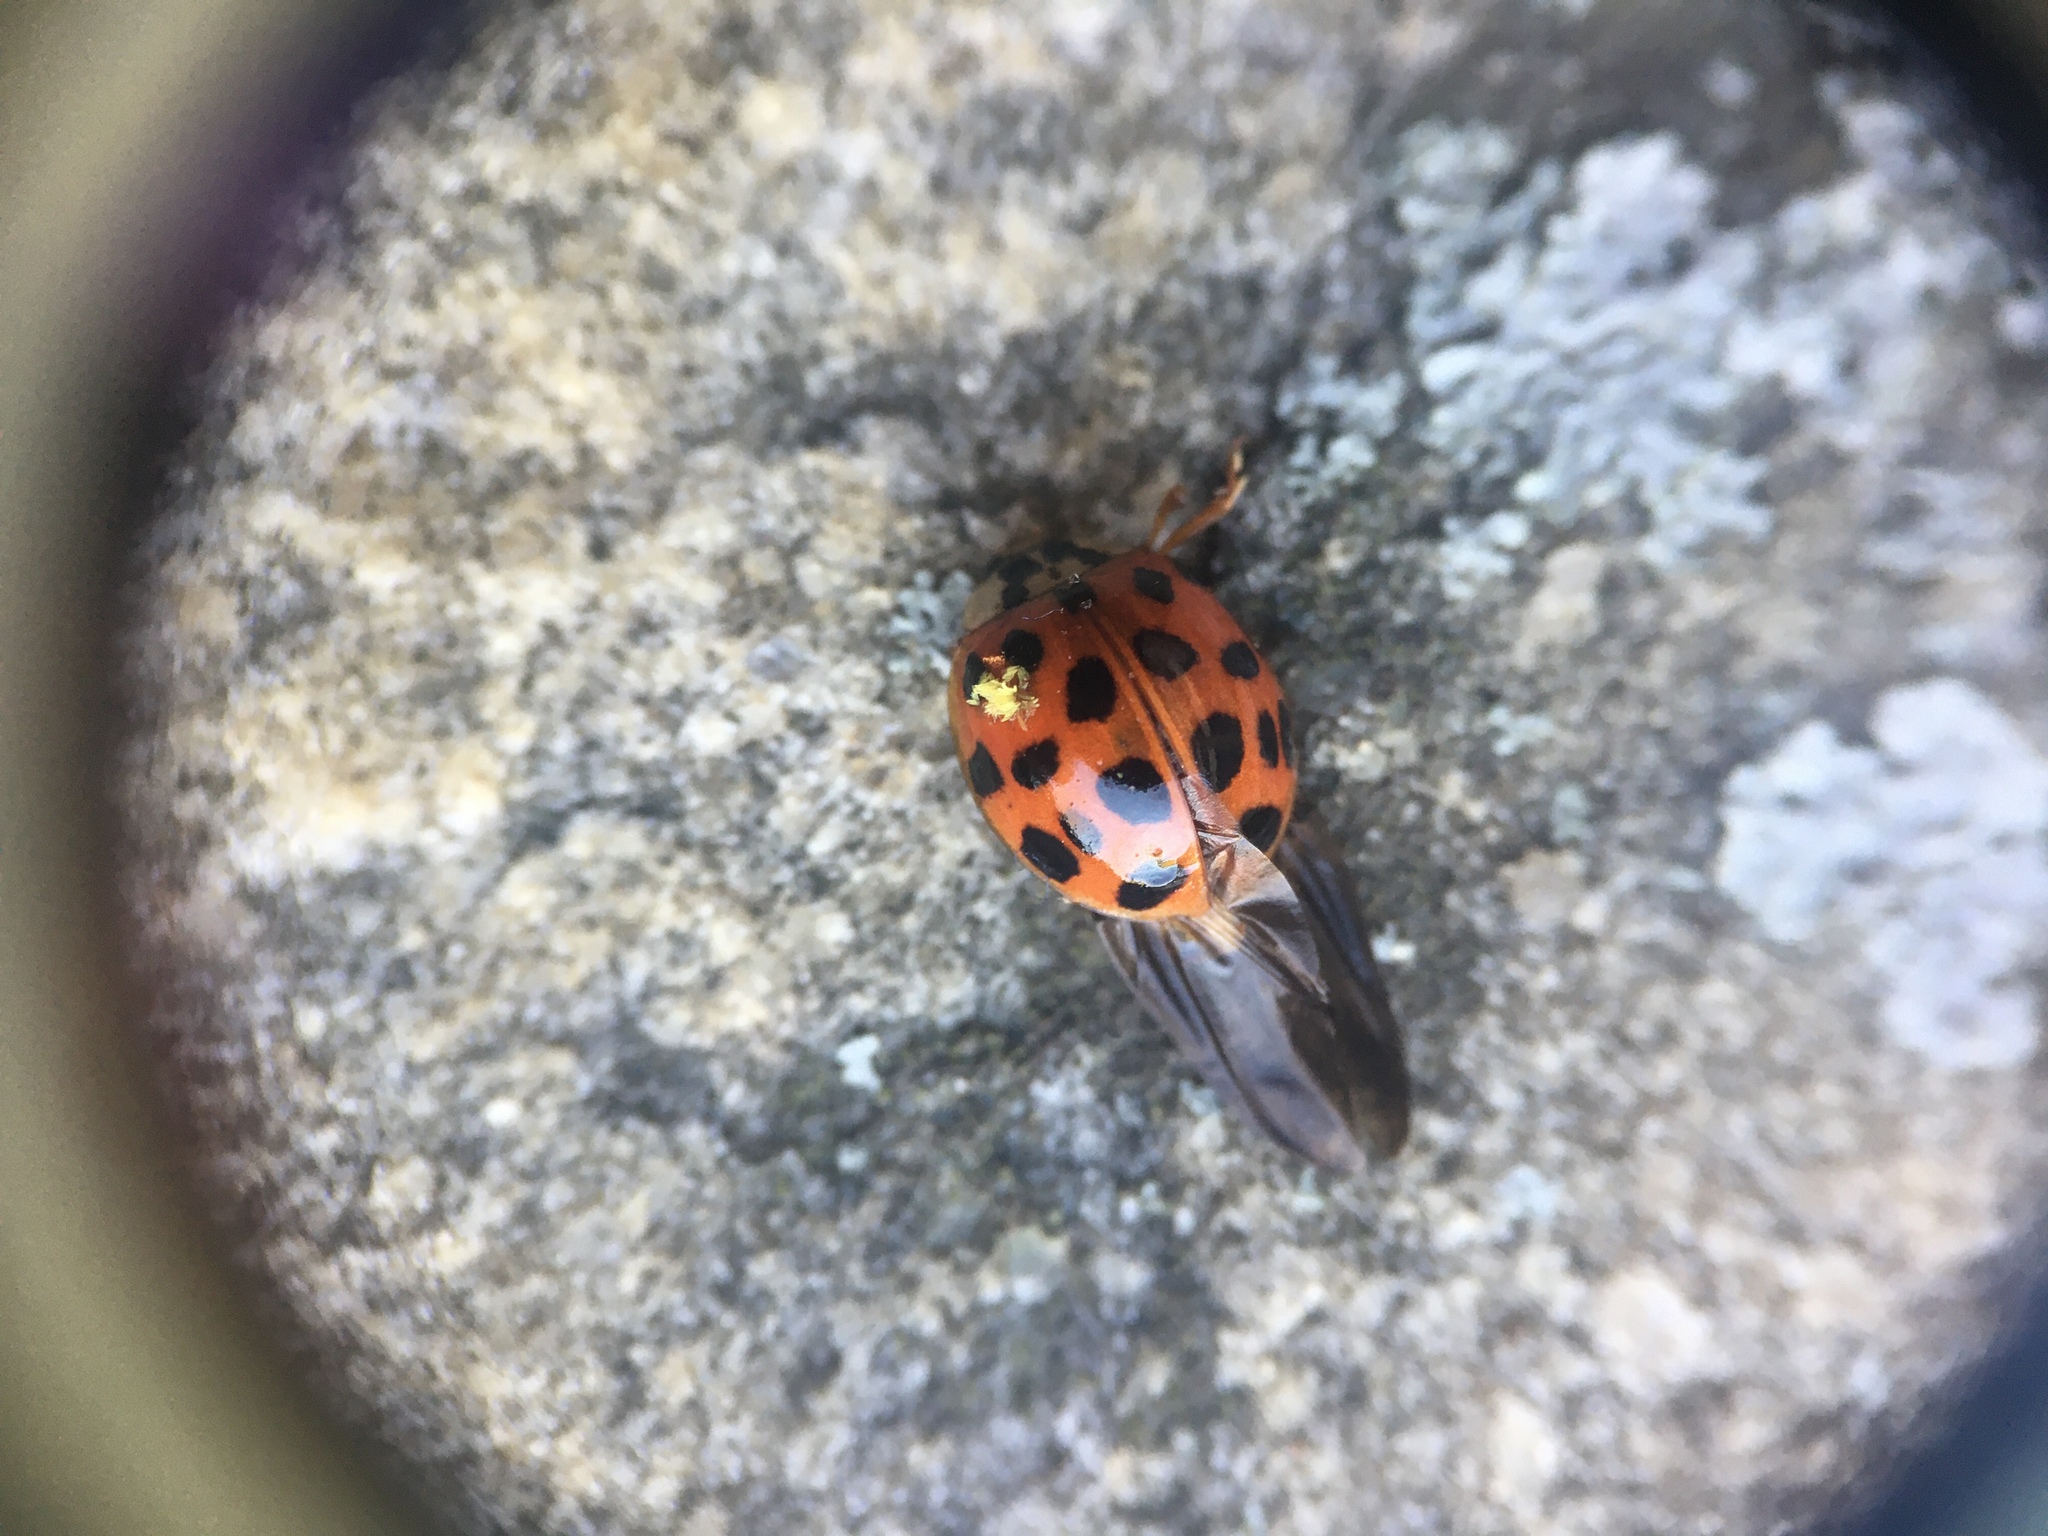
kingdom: Animalia
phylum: Arthropoda
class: Insecta
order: Coleoptera
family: Coccinellidae
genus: Harmonia
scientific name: Harmonia axyridis
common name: Harlequin ladybird
